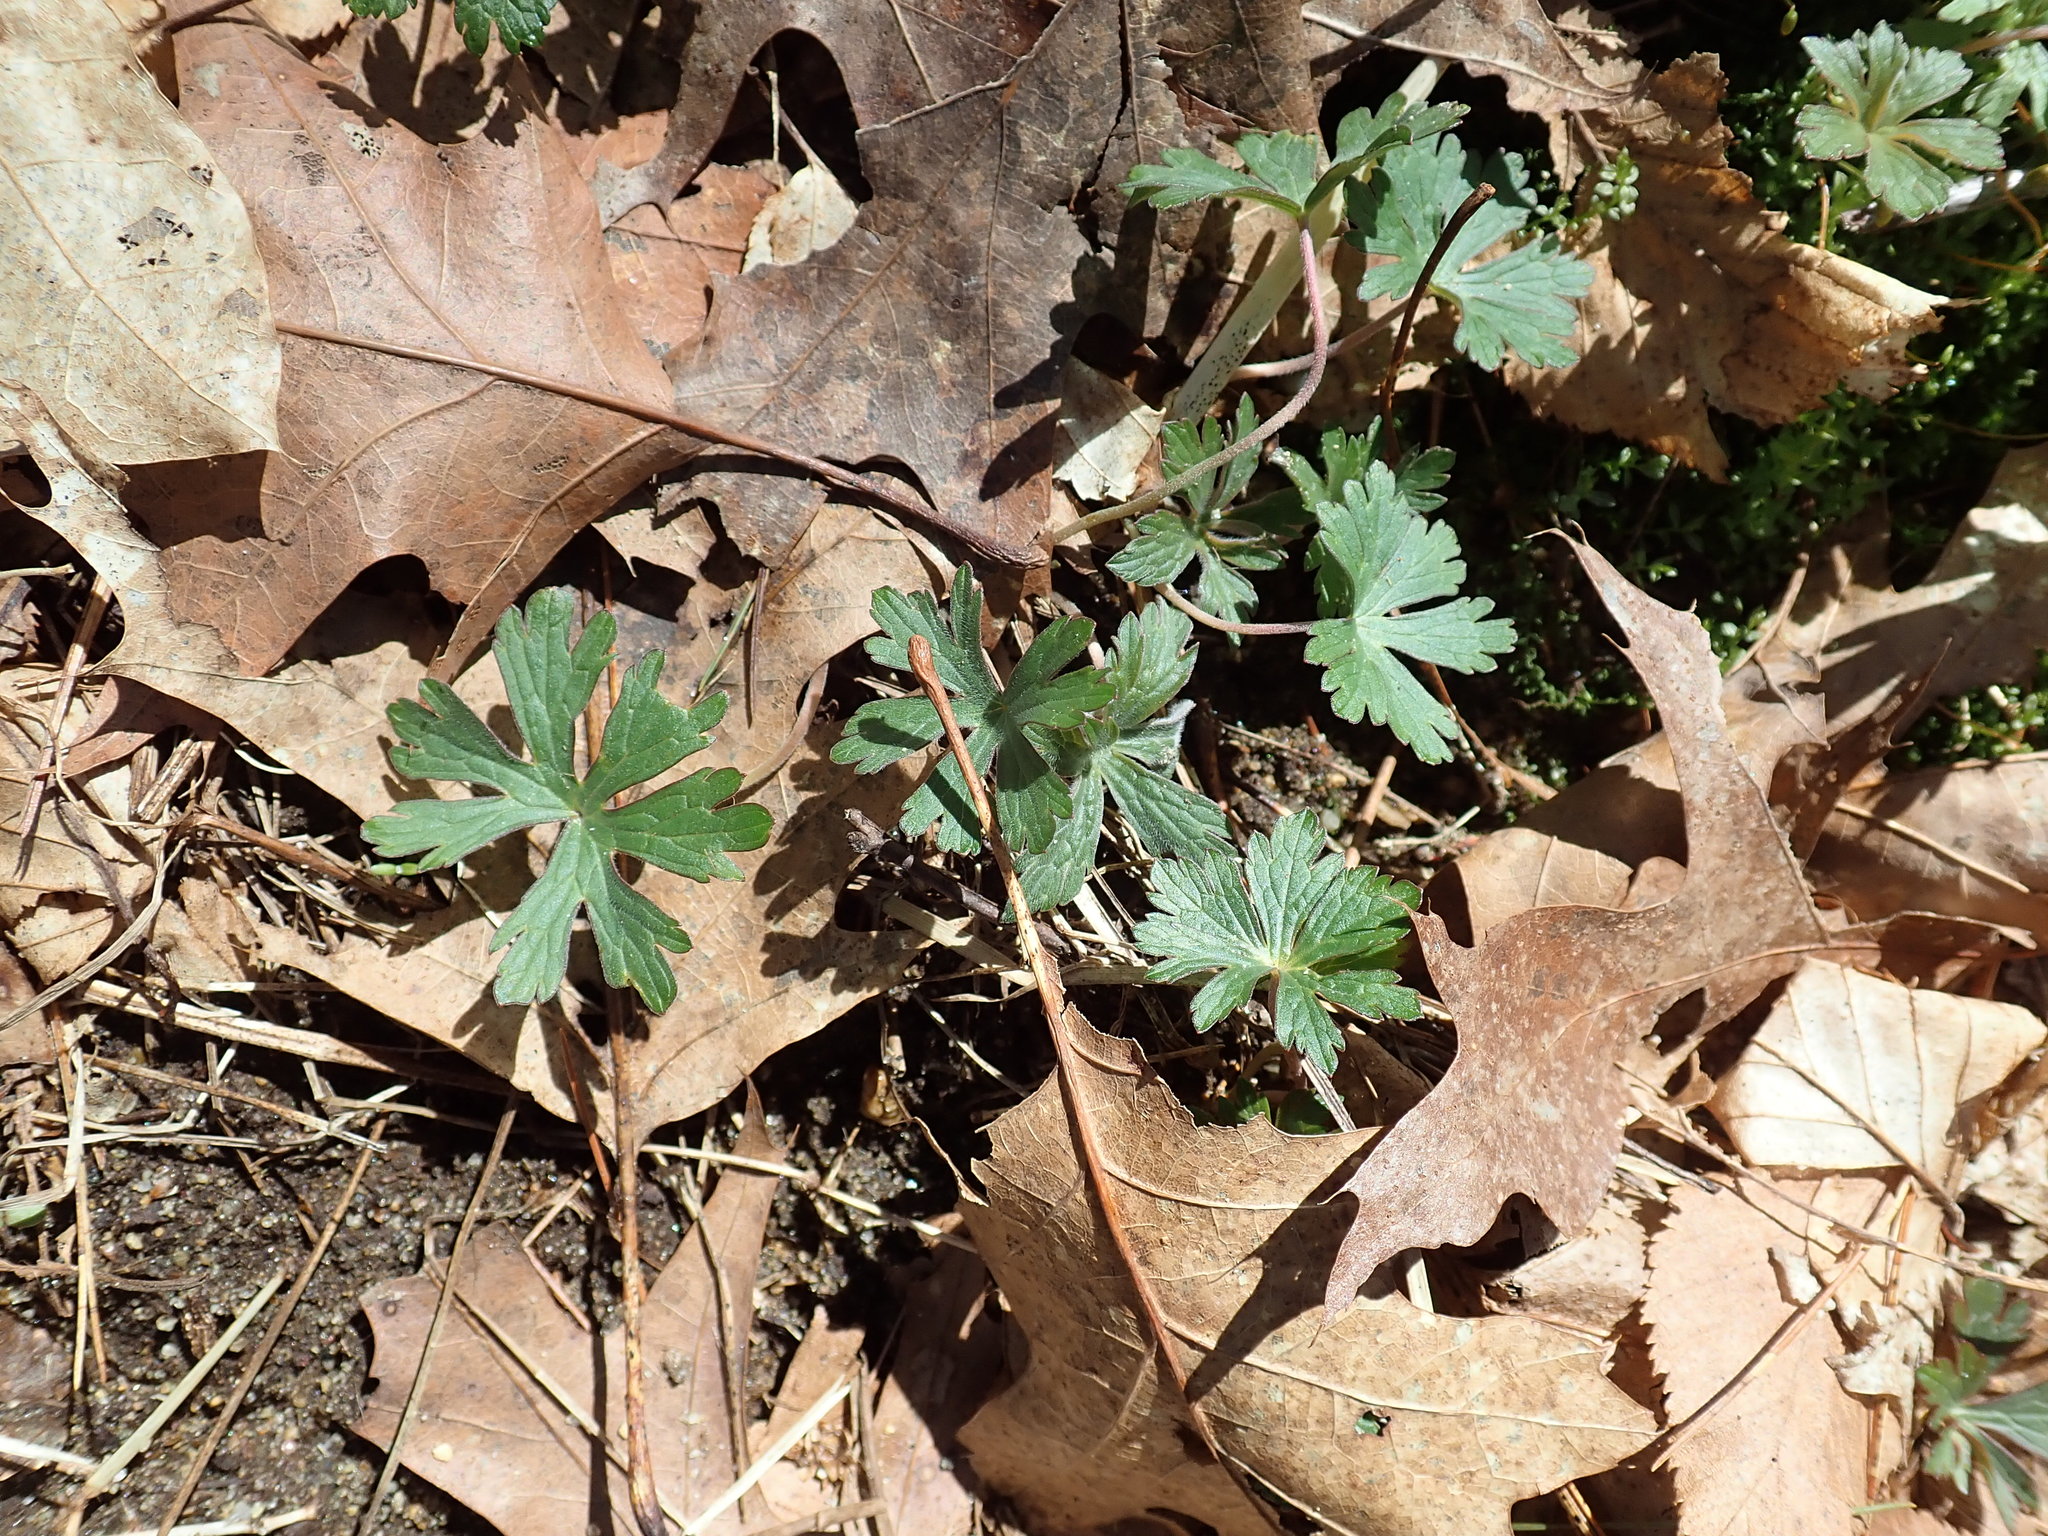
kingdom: Plantae
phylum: Tracheophyta
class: Magnoliopsida
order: Geraniales
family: Geraniaceae
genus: Geranium
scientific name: Geranium maculatum
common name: Spotted geranium
